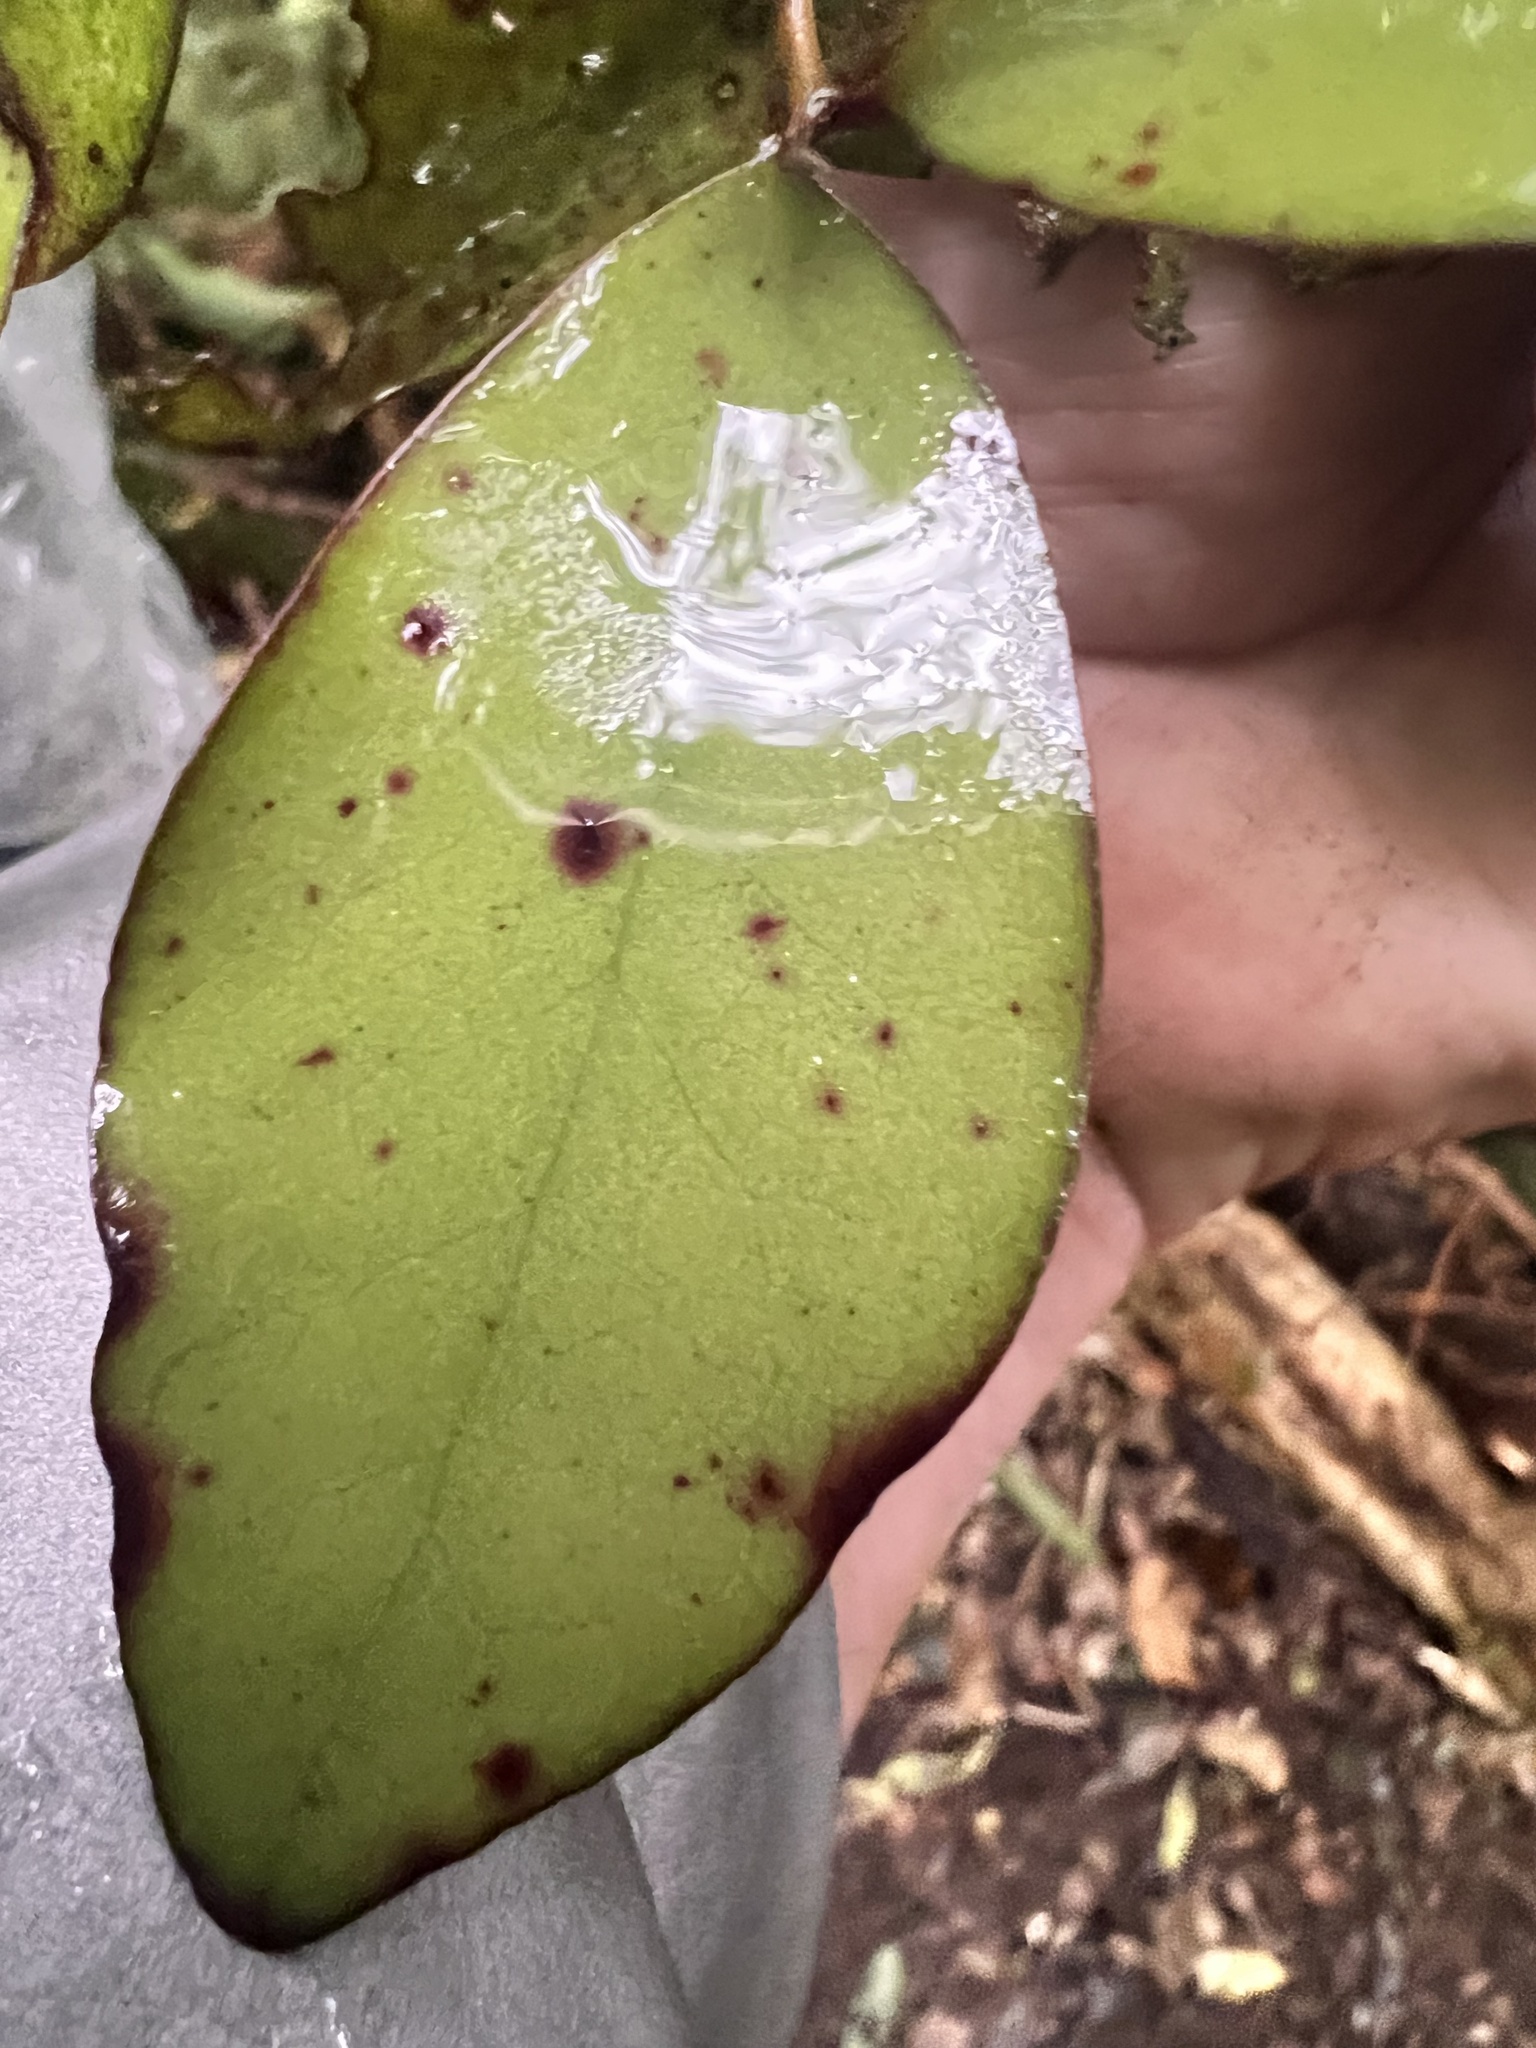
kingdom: Plantae
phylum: Tracheophyta
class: Magnoliopsida
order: Canellales
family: Winteraceae
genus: Pseudowintera
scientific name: Pseudowintera colorata
